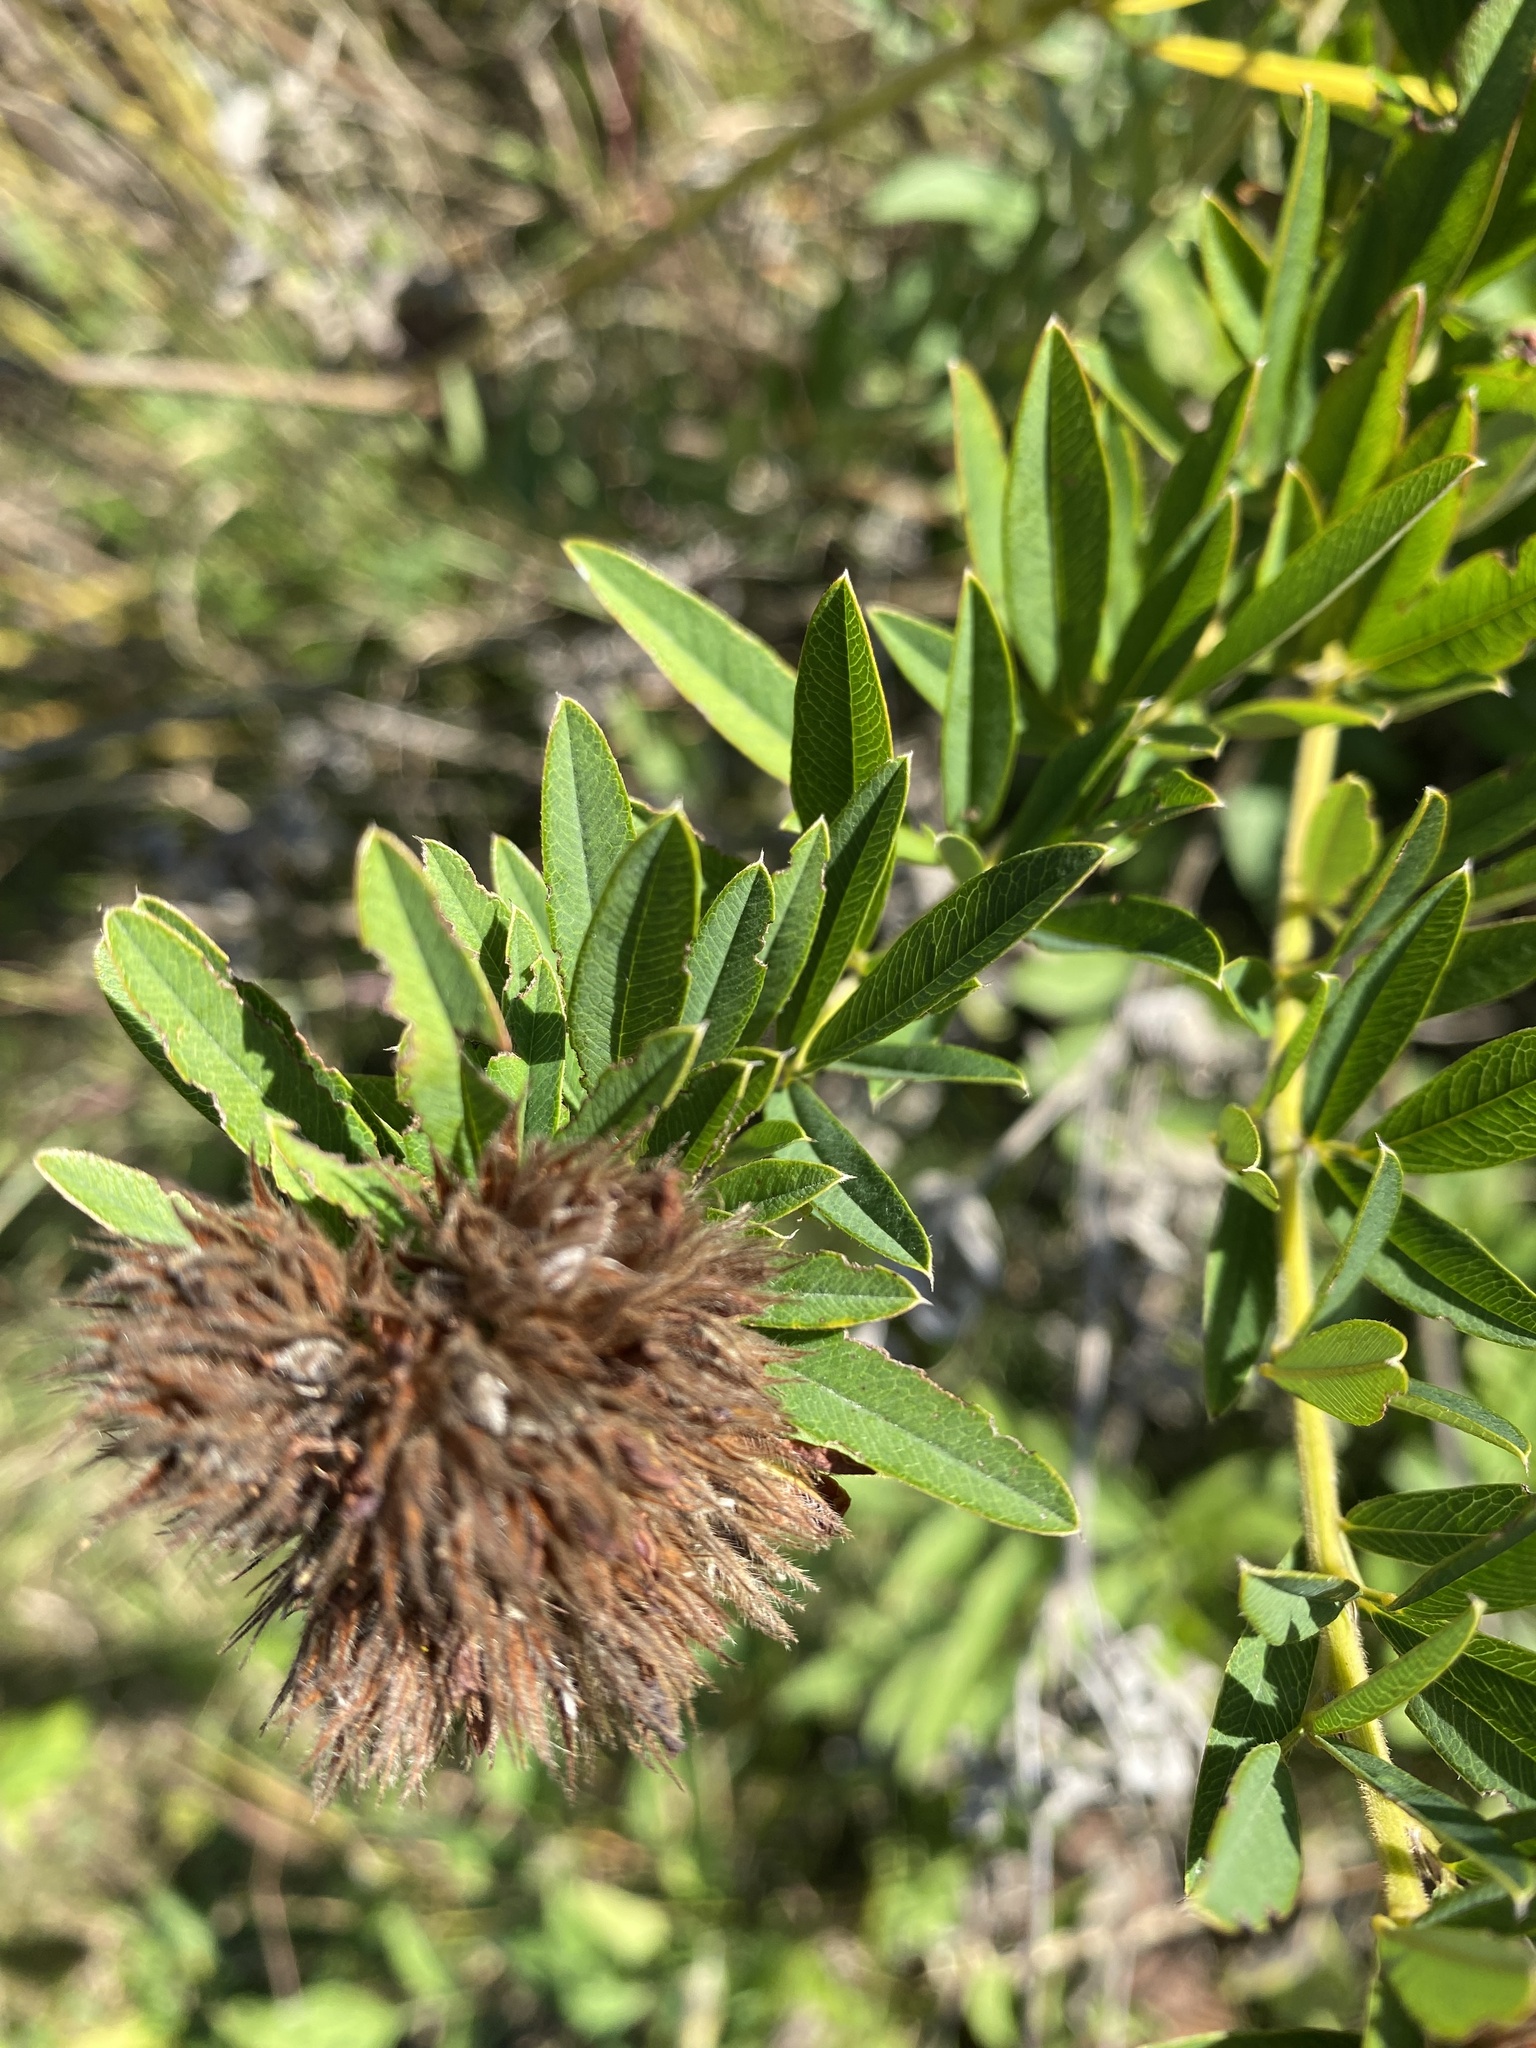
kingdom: Plantae
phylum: Tracheophyta
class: Magnoliopsida
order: Fabales
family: Fabaceae
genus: Lespedeza
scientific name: Lespedeza capitata
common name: Dusty clover
